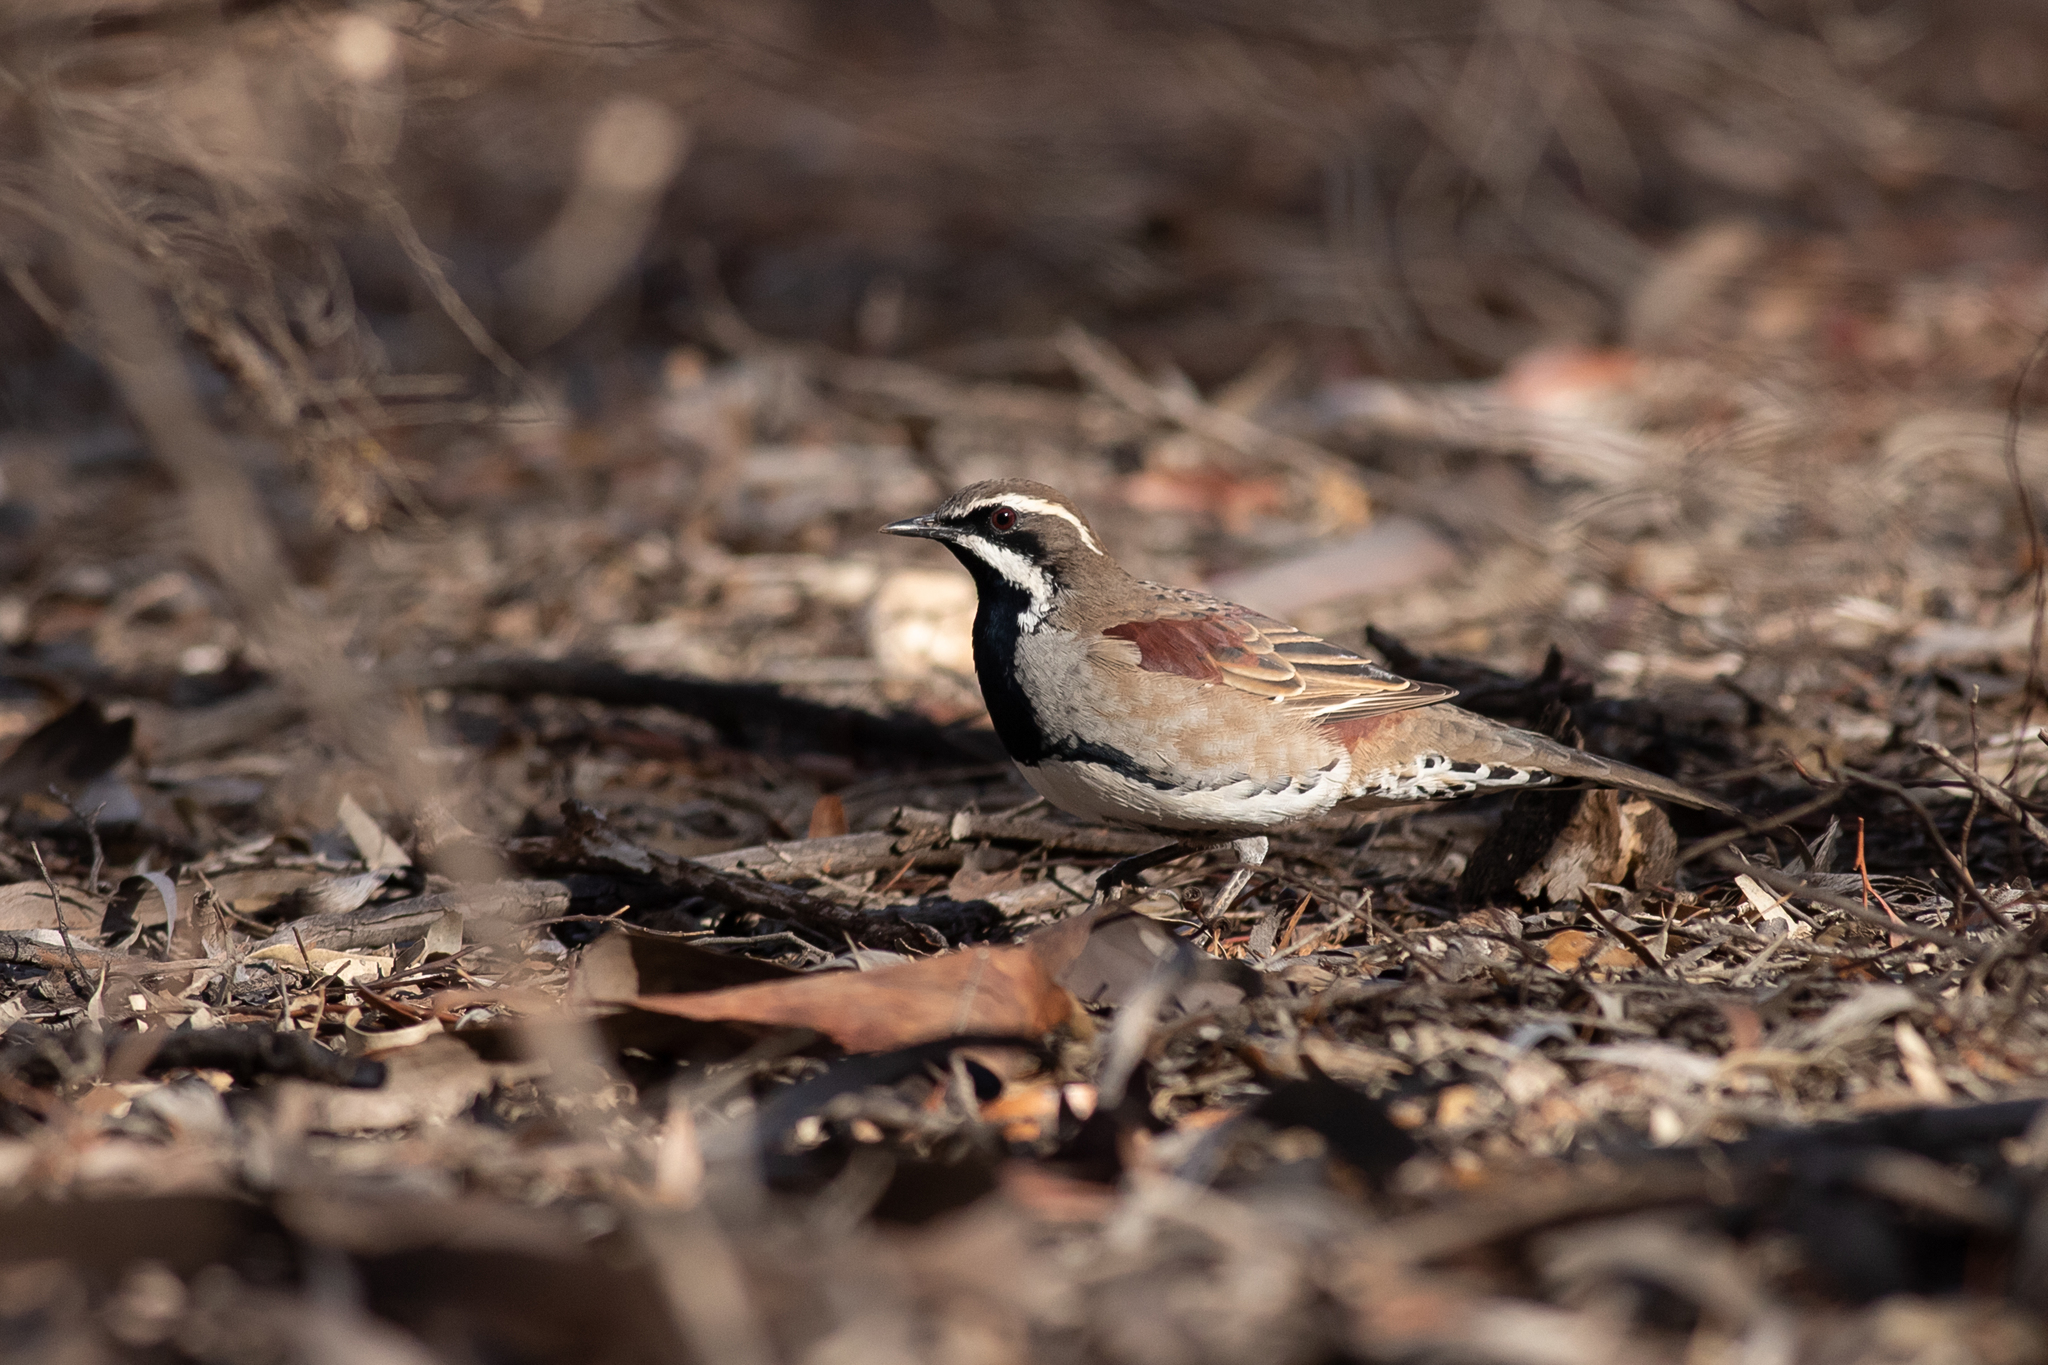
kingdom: Animalia
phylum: Chordata
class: Aves
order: Passeriformes
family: Psophodidae
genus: Cinclosoma
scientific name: Cinclosoma castanotum
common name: Chestnut quail-thrush
